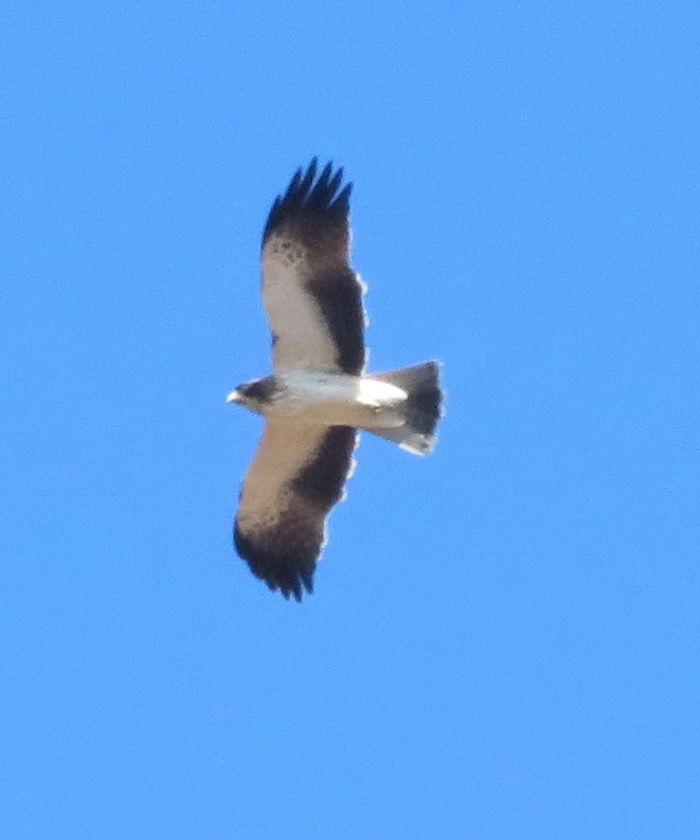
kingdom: Animalia
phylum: Chordata
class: Aves
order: Accipitriformes
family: Accipitridae
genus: Hieraaetus
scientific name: Hieraaetus pennatus
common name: Booted eagle
